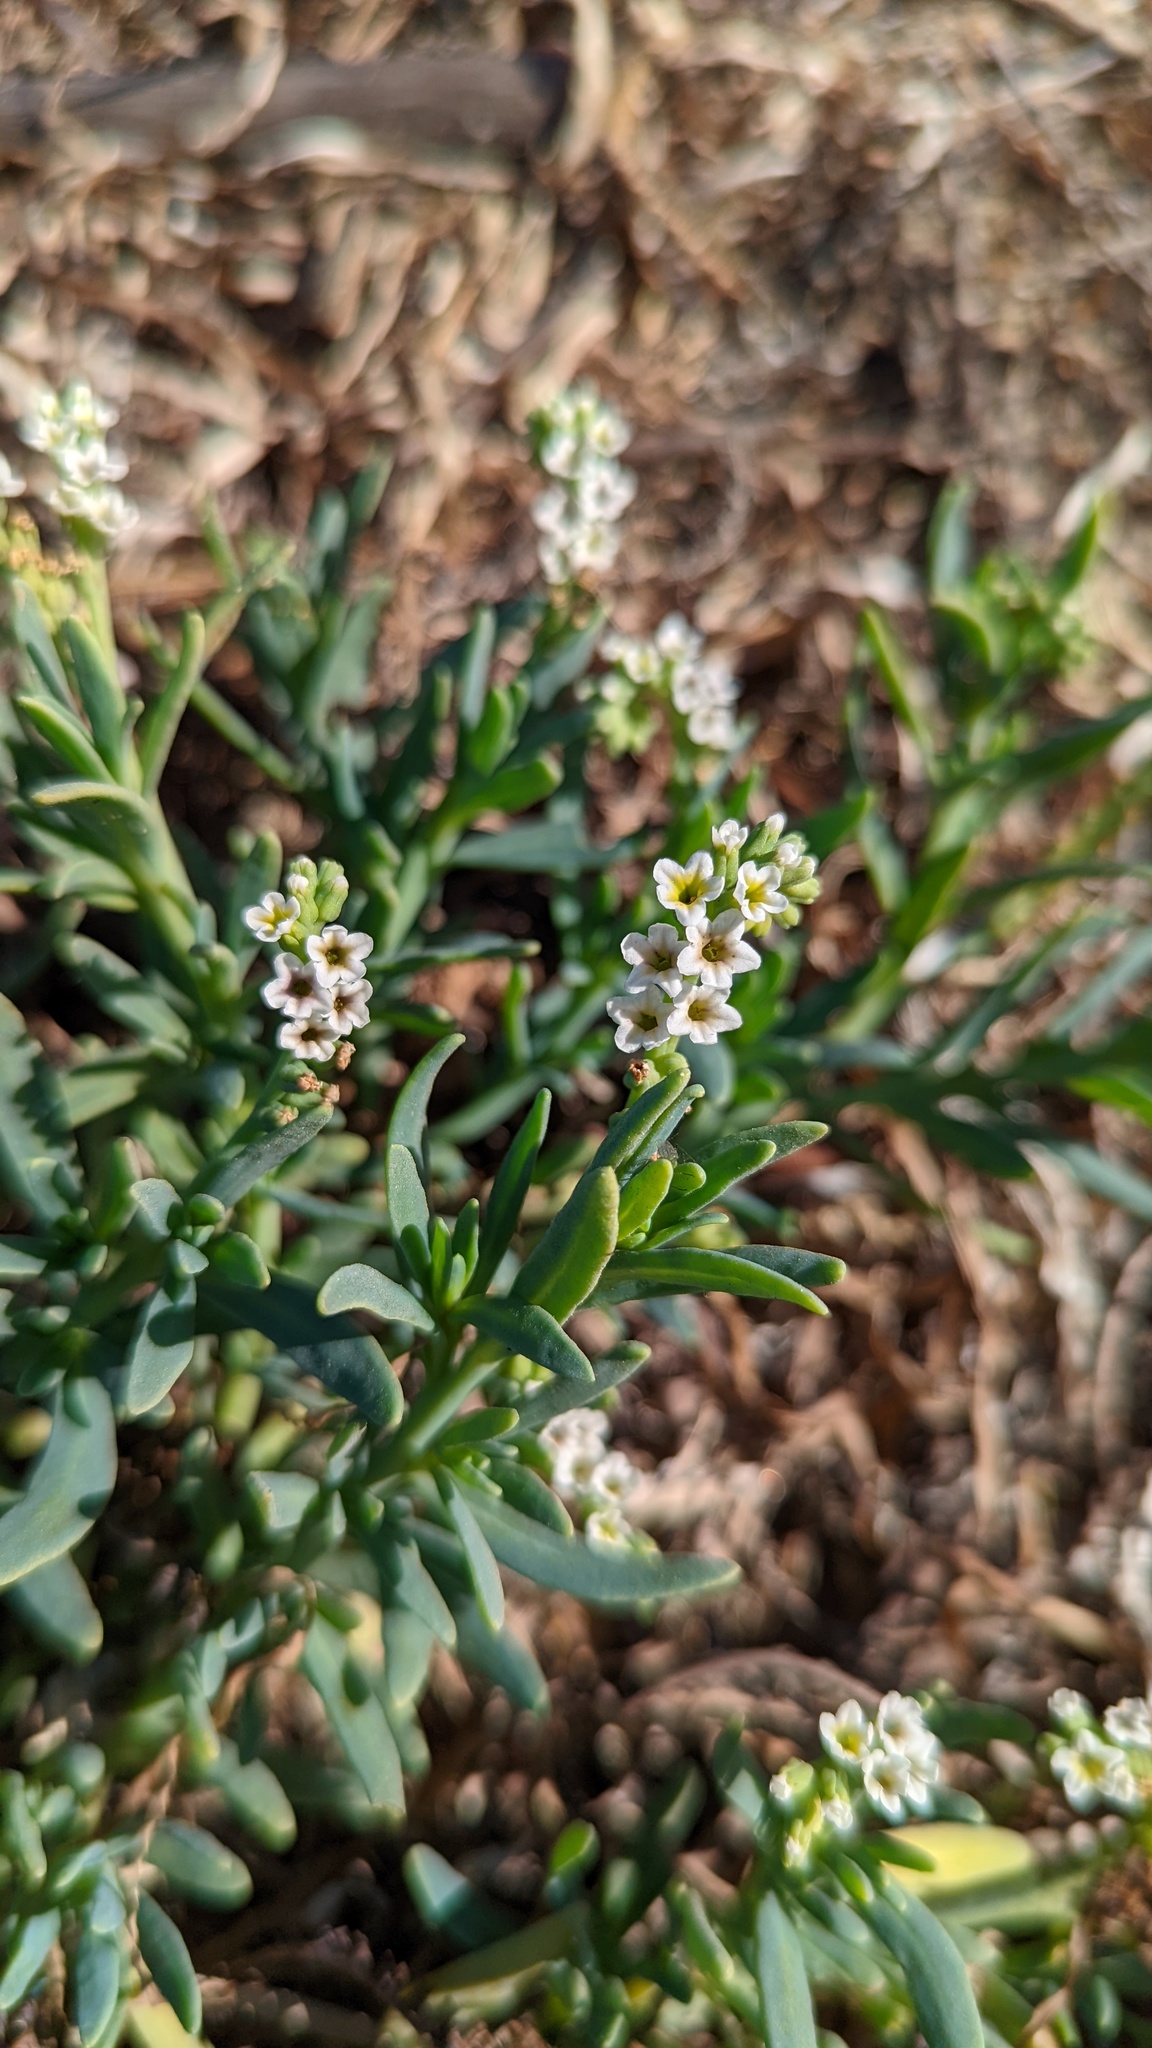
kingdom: Plantae
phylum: Tracheophyta
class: Magnoliopsida
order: Boraginales
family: Heliotropiaceae
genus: Heliotropium
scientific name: Heliotropium curassavicum
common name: Seaside heliotrope
